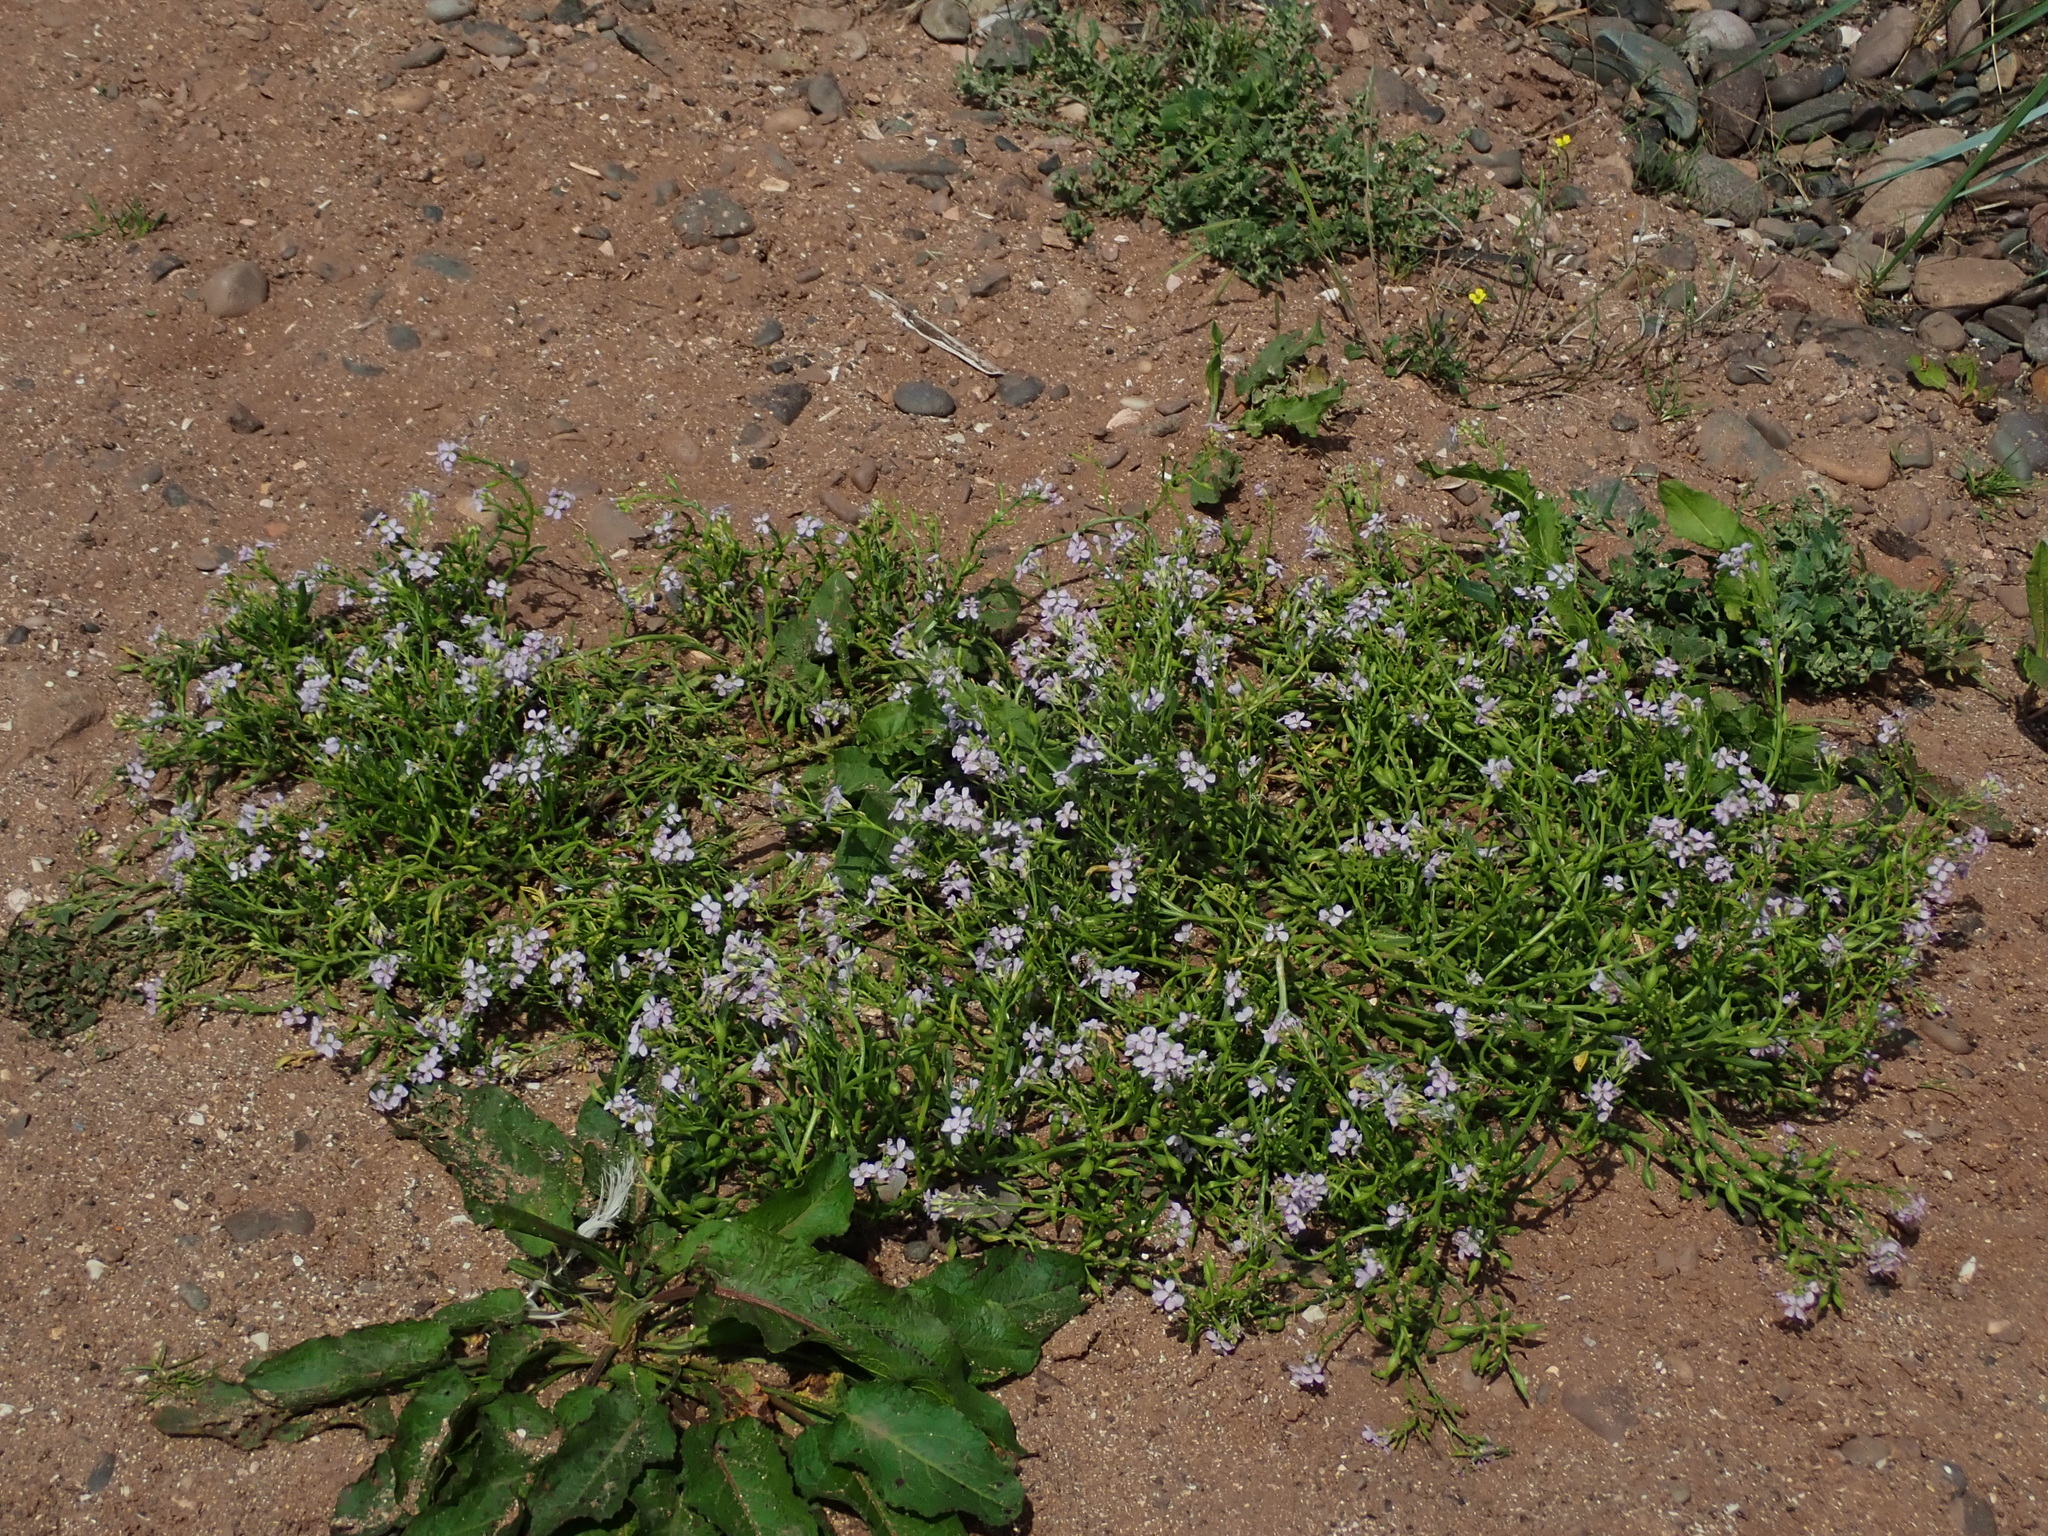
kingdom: Plantae
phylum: Tracheophyta
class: Magnoliopsida
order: Brassicales
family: Brassicaceae
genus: Cakile
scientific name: Cakile maritima
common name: Sea rocket
